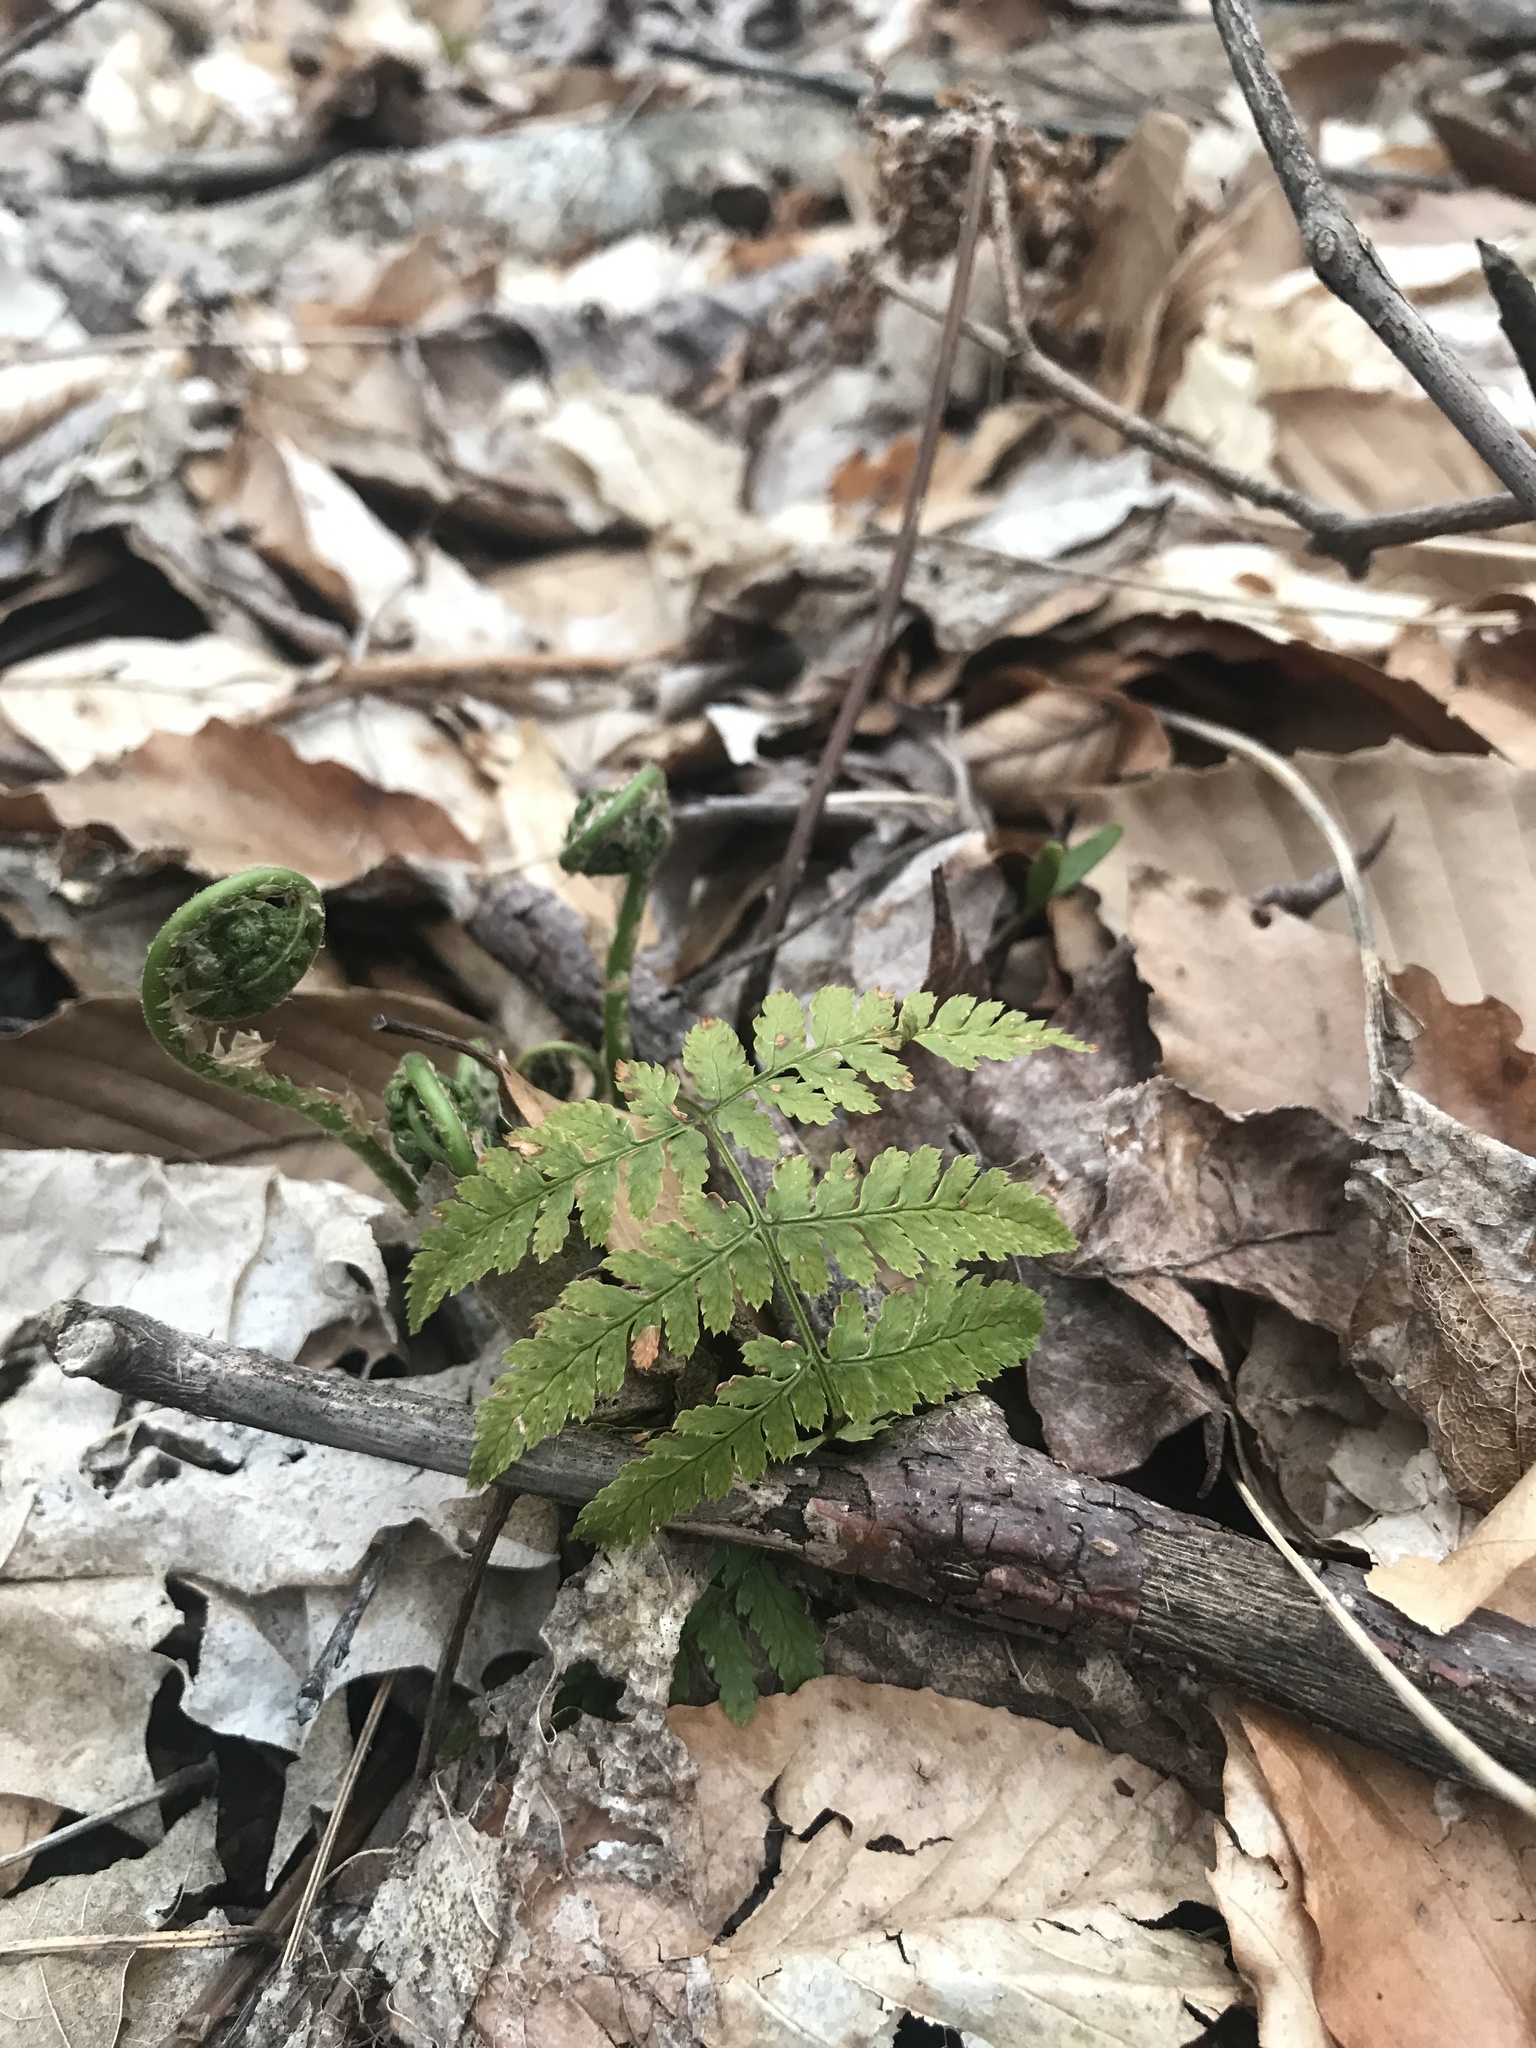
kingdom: Plantae
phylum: Tracheophyta
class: Polypodiopsida
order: Polypodiales
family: Dryopteridaceae
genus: Dryopteris
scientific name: Dryopteris intermedia
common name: Evergreen wood fern
